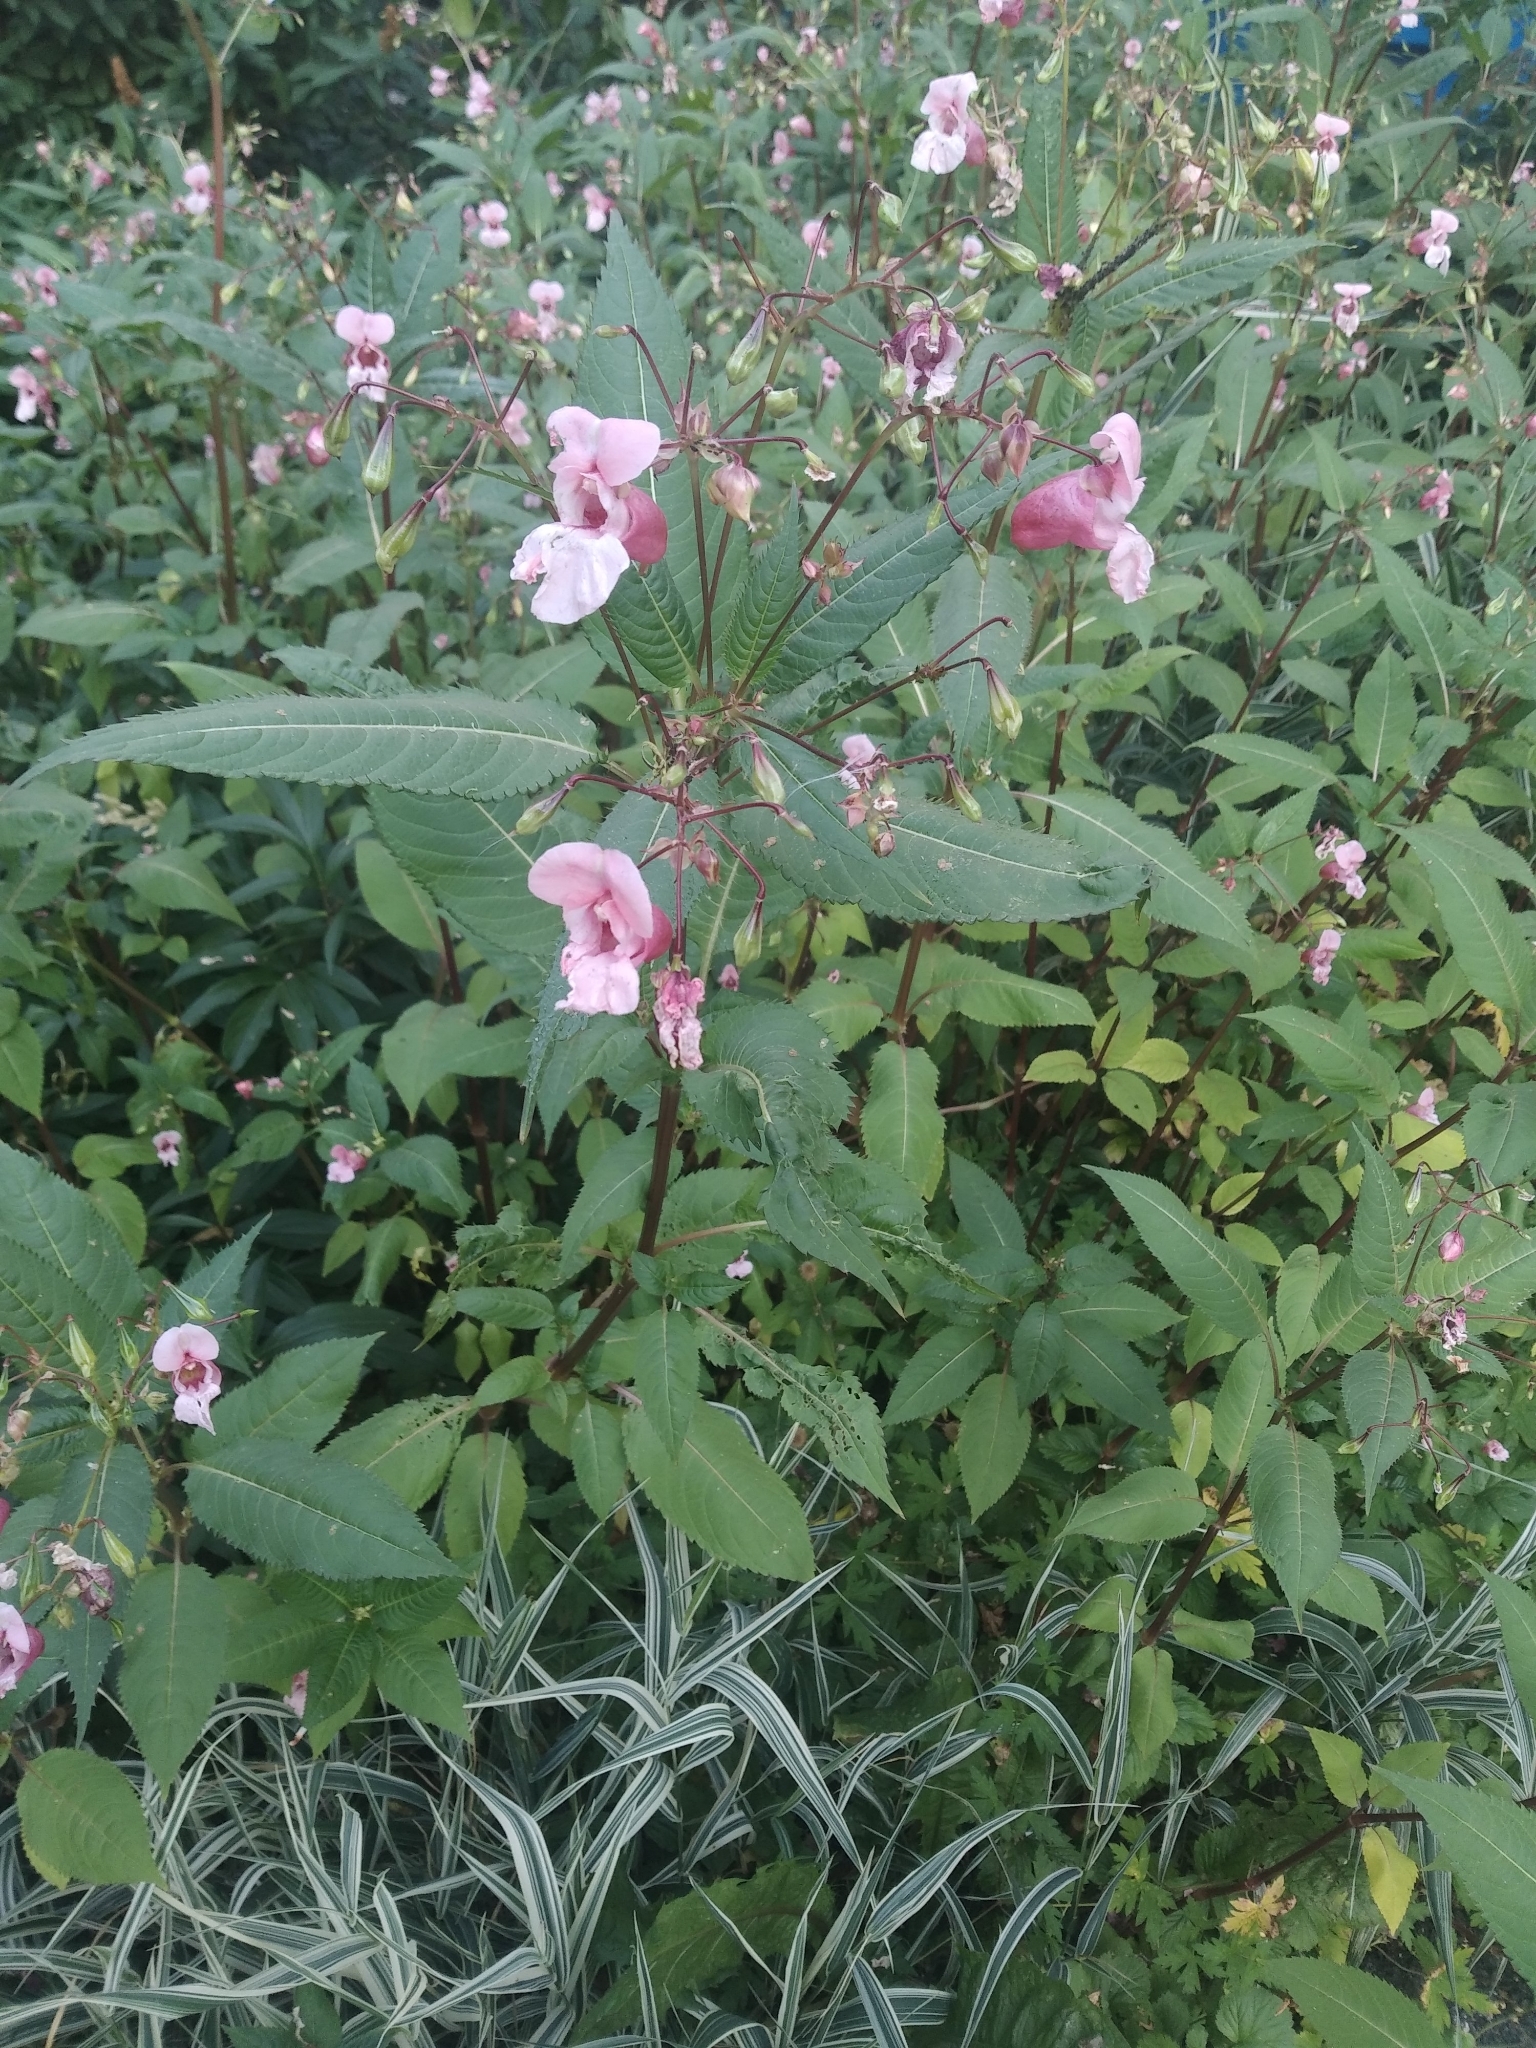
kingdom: Plantae
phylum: Tracheophyta
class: Magnoliopsida
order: Ericales
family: Balsaminaceae
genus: Impatiens
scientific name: Impatiens glandulifera
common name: Himalayan balsam
